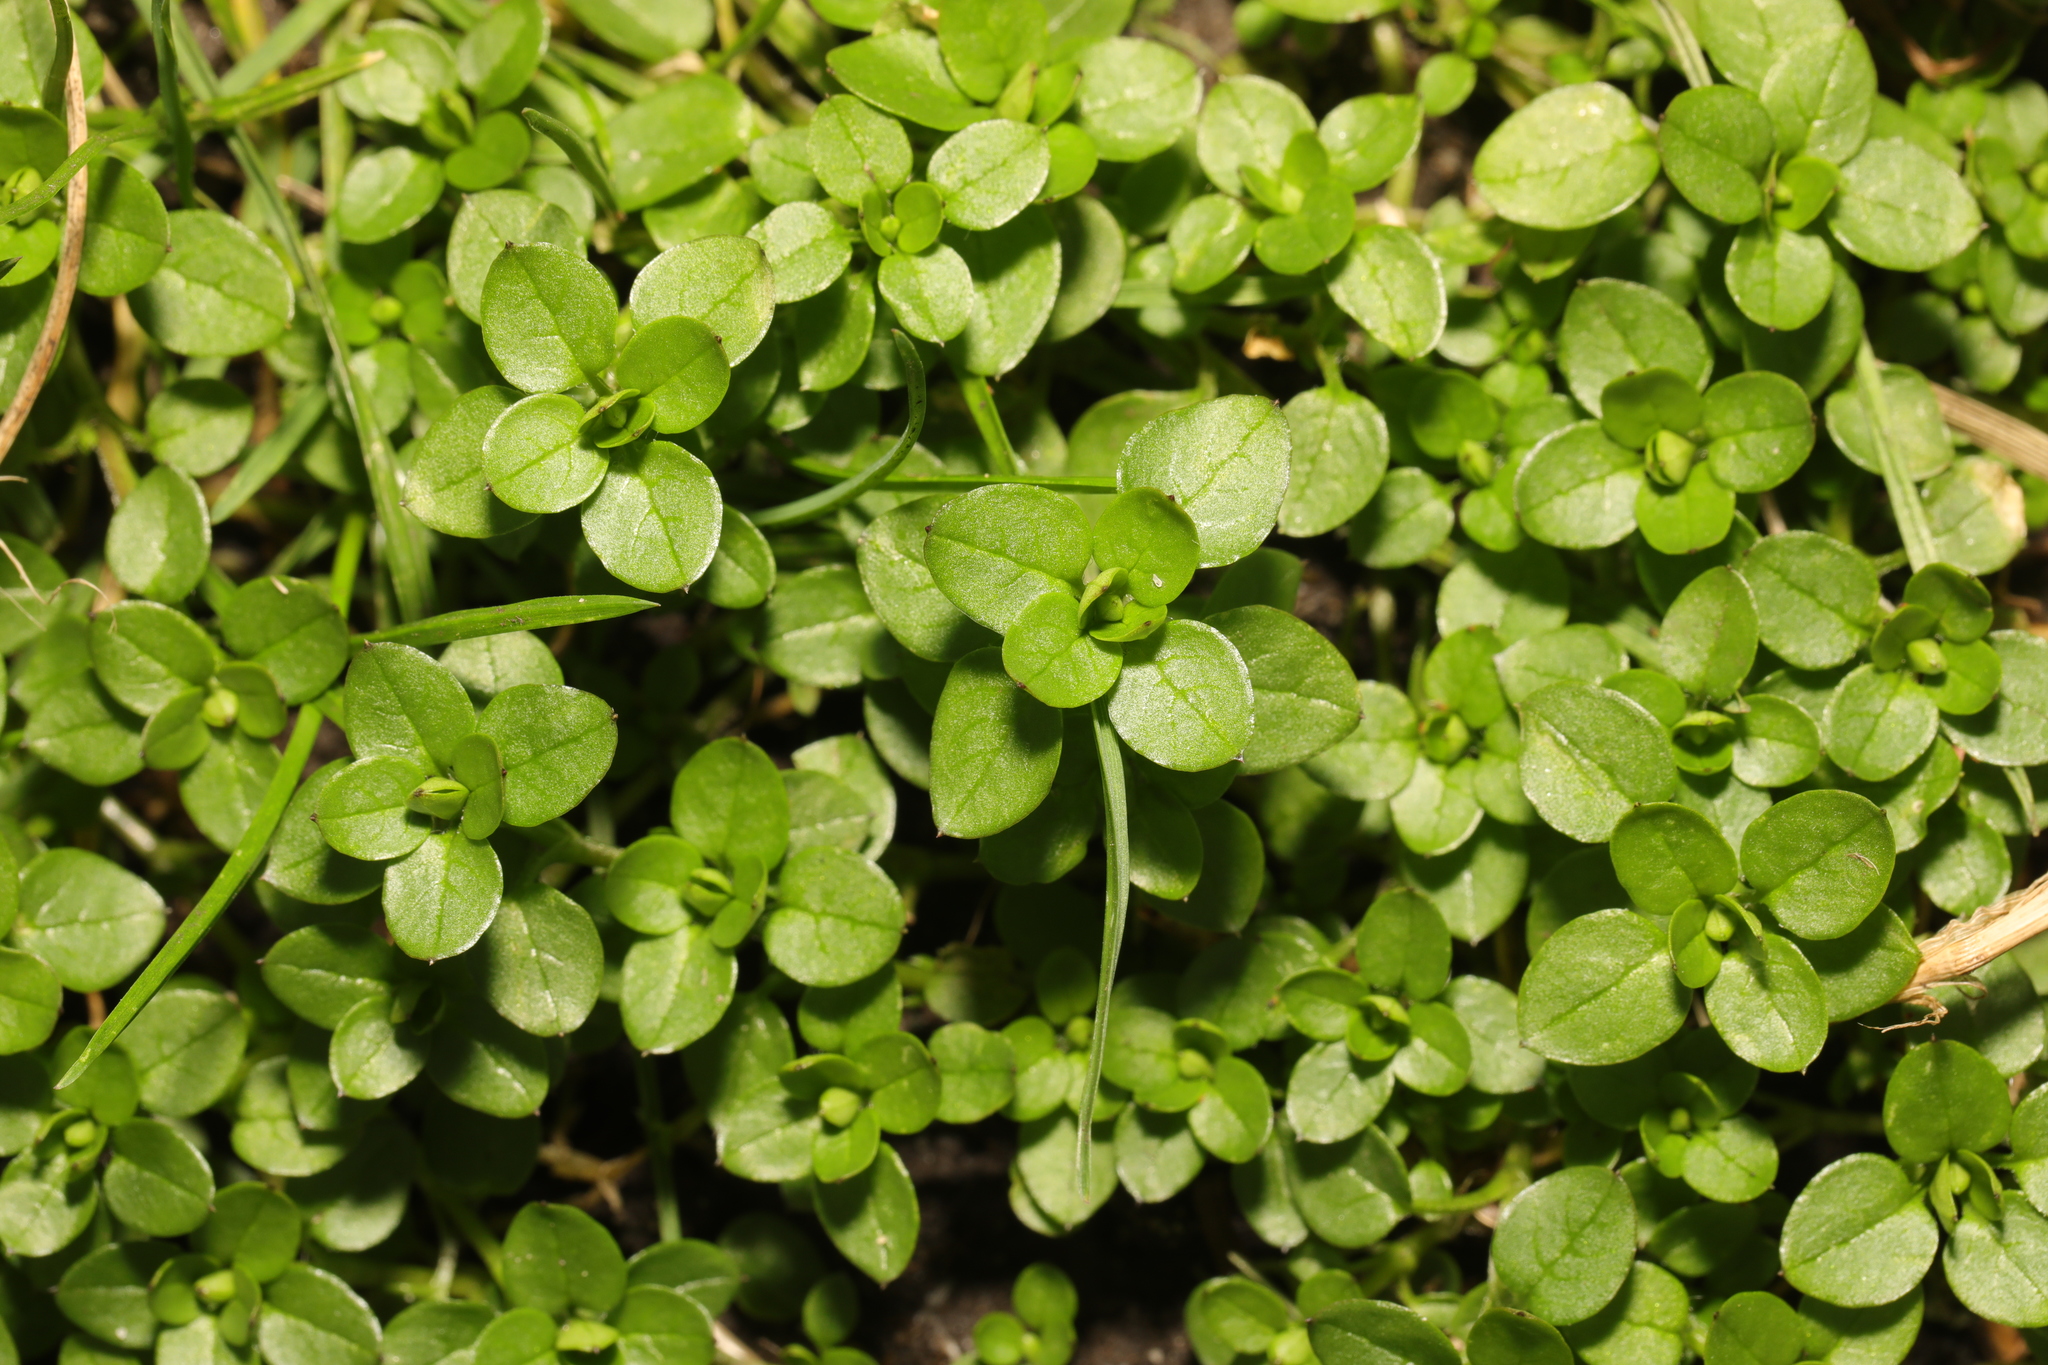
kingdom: Plantae
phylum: Tracheophyta
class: Magnoliopsida
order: Caryophyllales
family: Caryophyllaceae
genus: Stellaria
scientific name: Stellaria media
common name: Common chickweed
